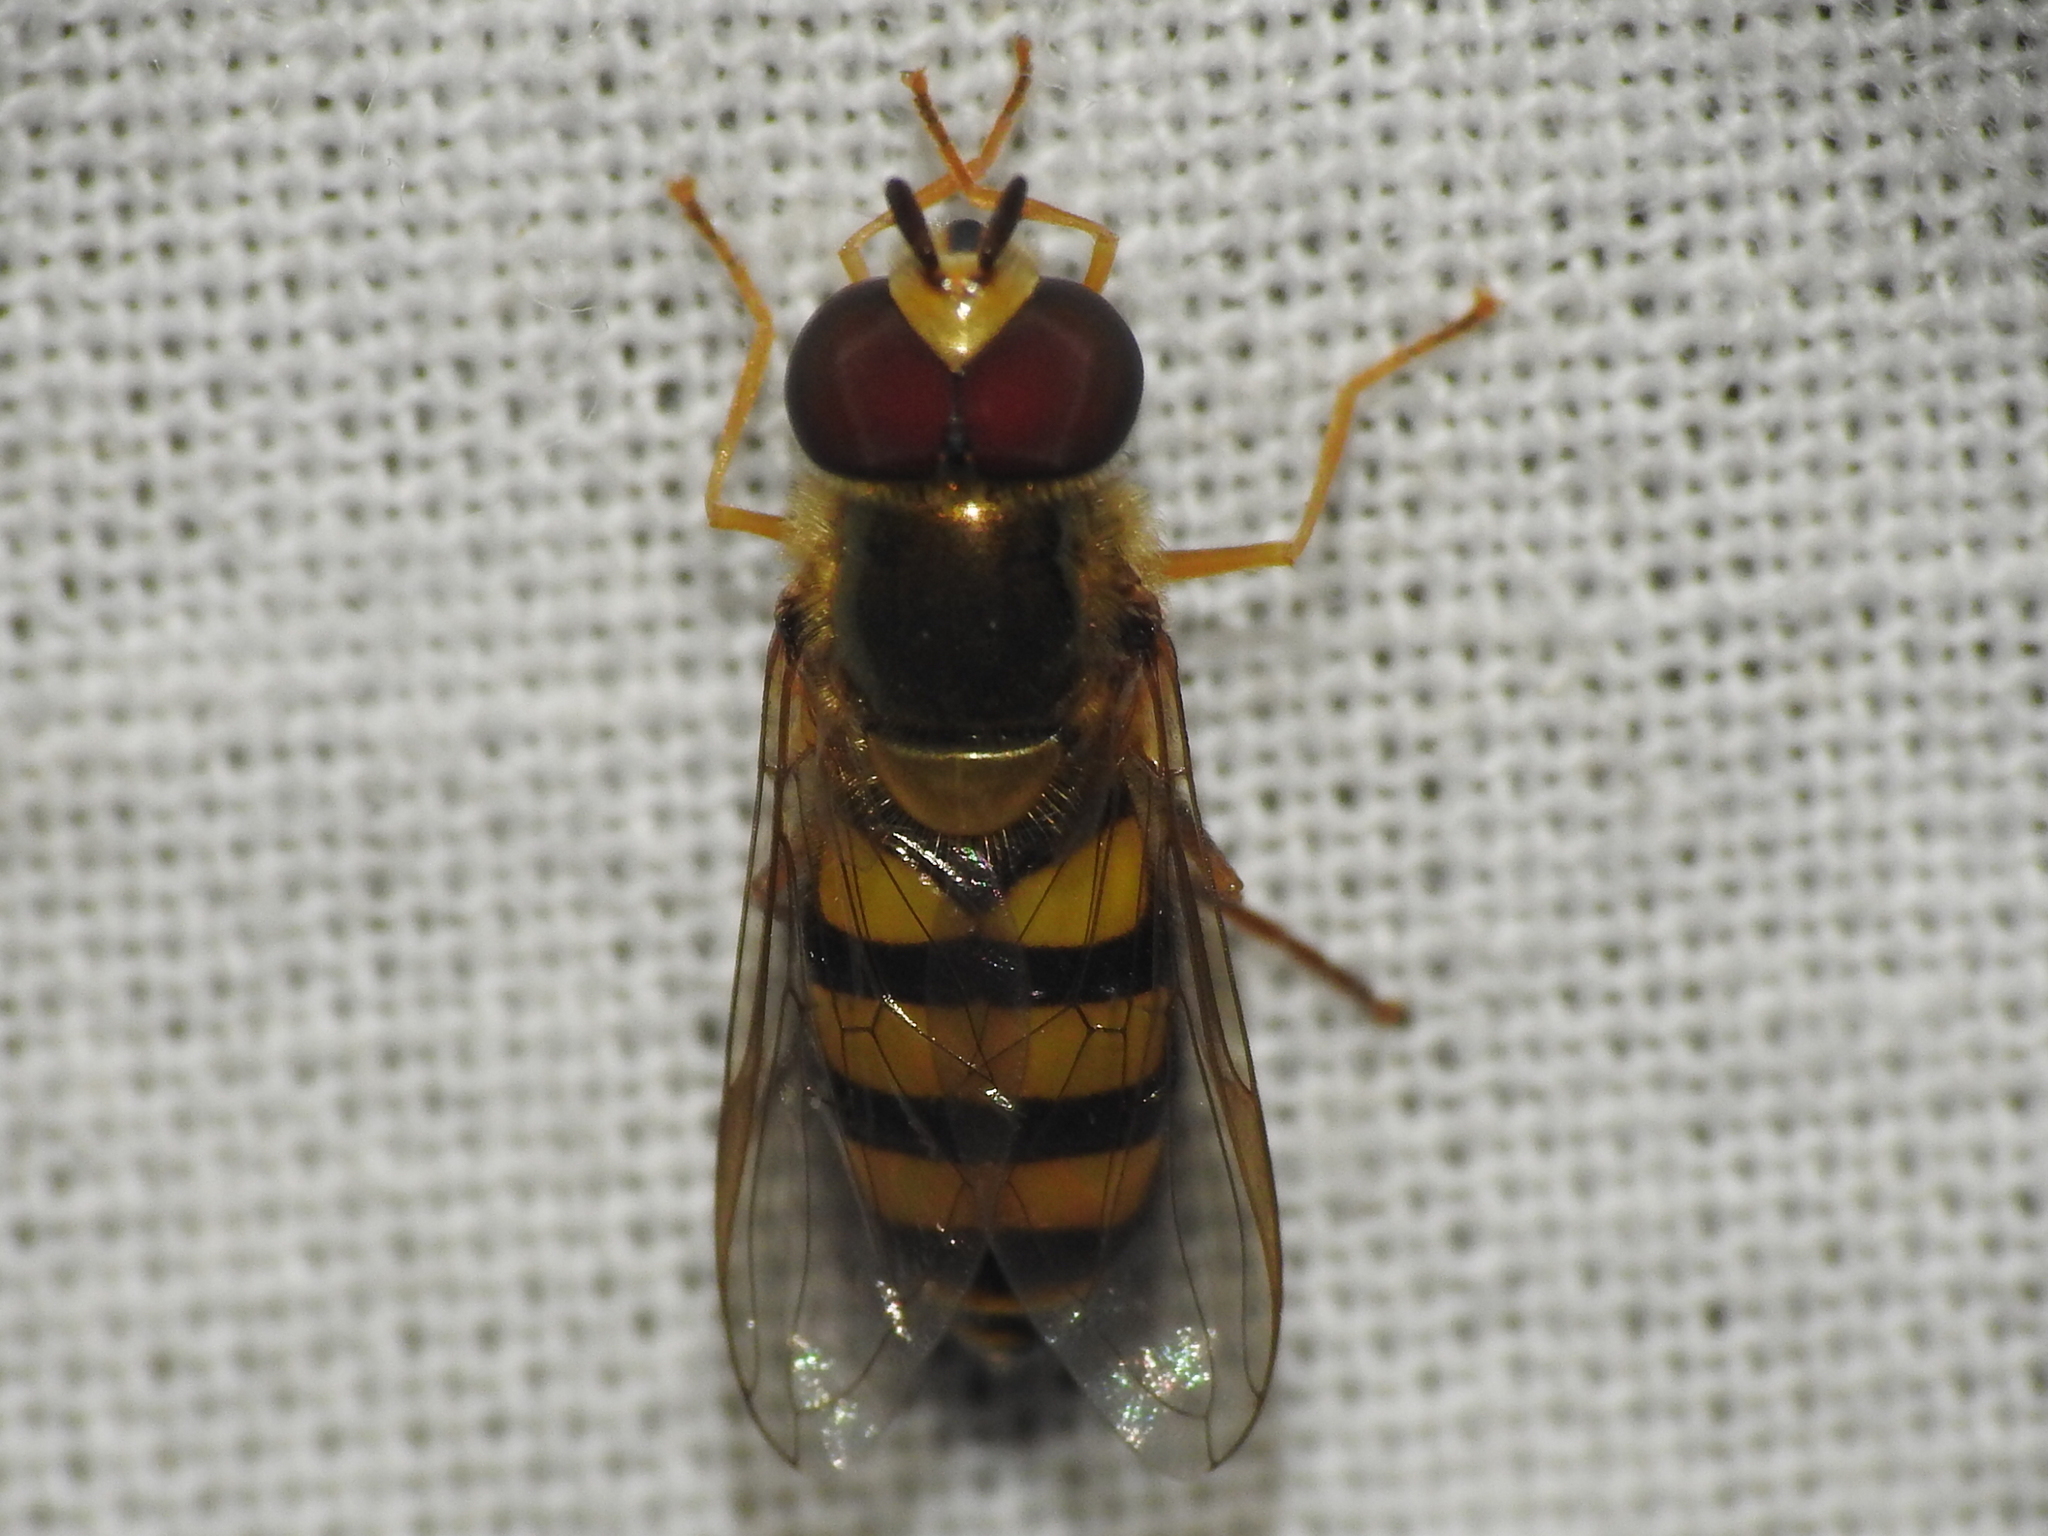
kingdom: Animalia
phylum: Arthropoda
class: Insecta
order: Diptera
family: Syrphidae
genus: Eupeodes
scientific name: Eupeodes
